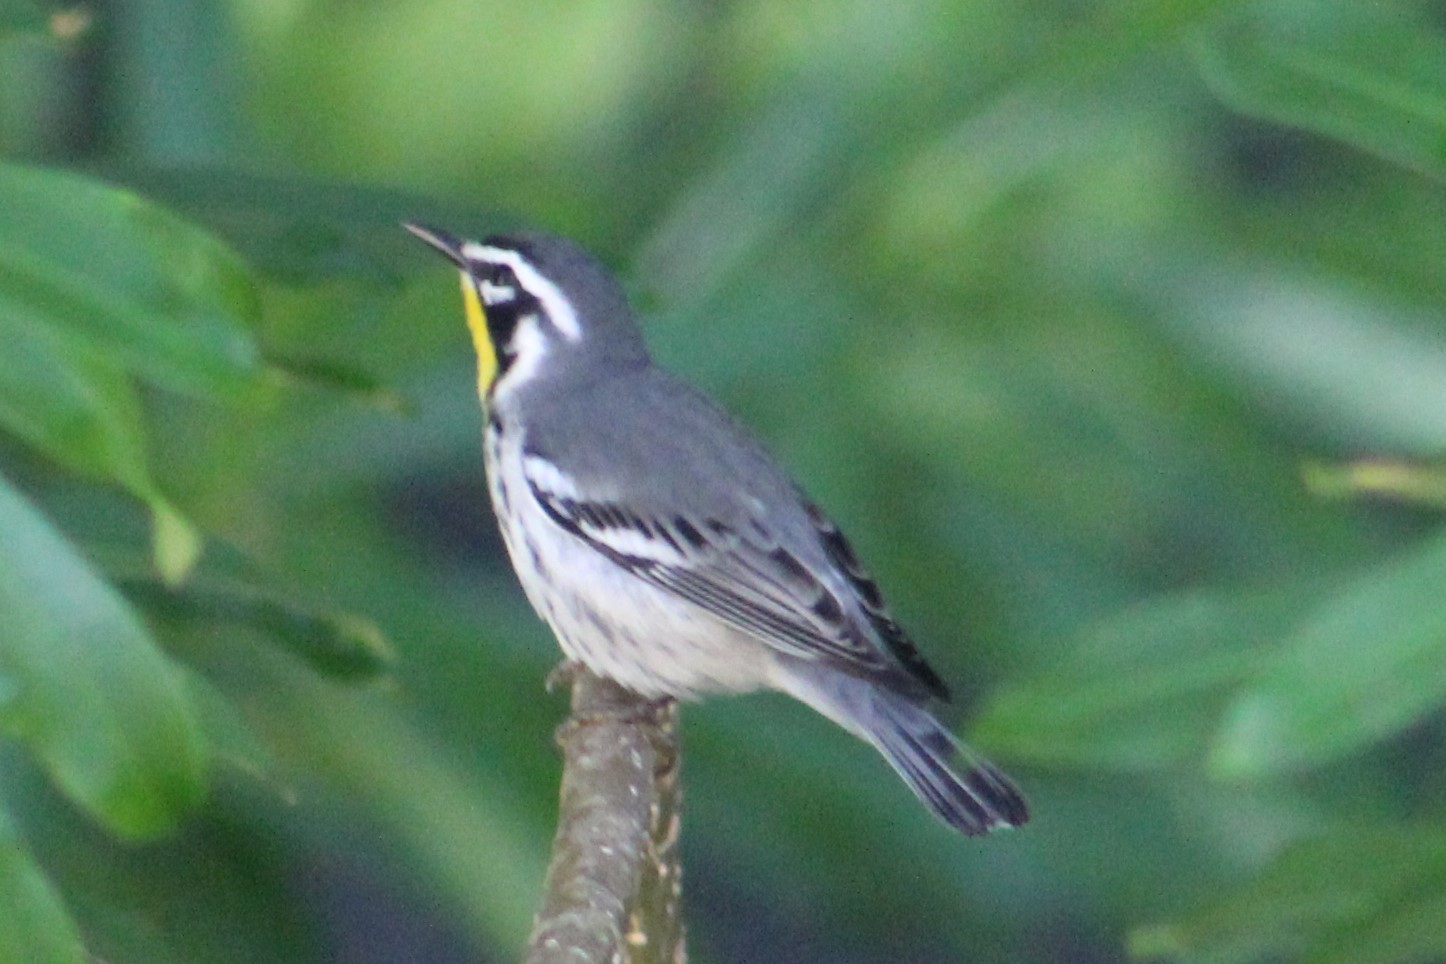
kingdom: Animalia
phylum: Chordata
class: Aves
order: Passeriformes
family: Parulidae
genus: Setophaga
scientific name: Setophaga dominica
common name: Yellow-throated warbler
